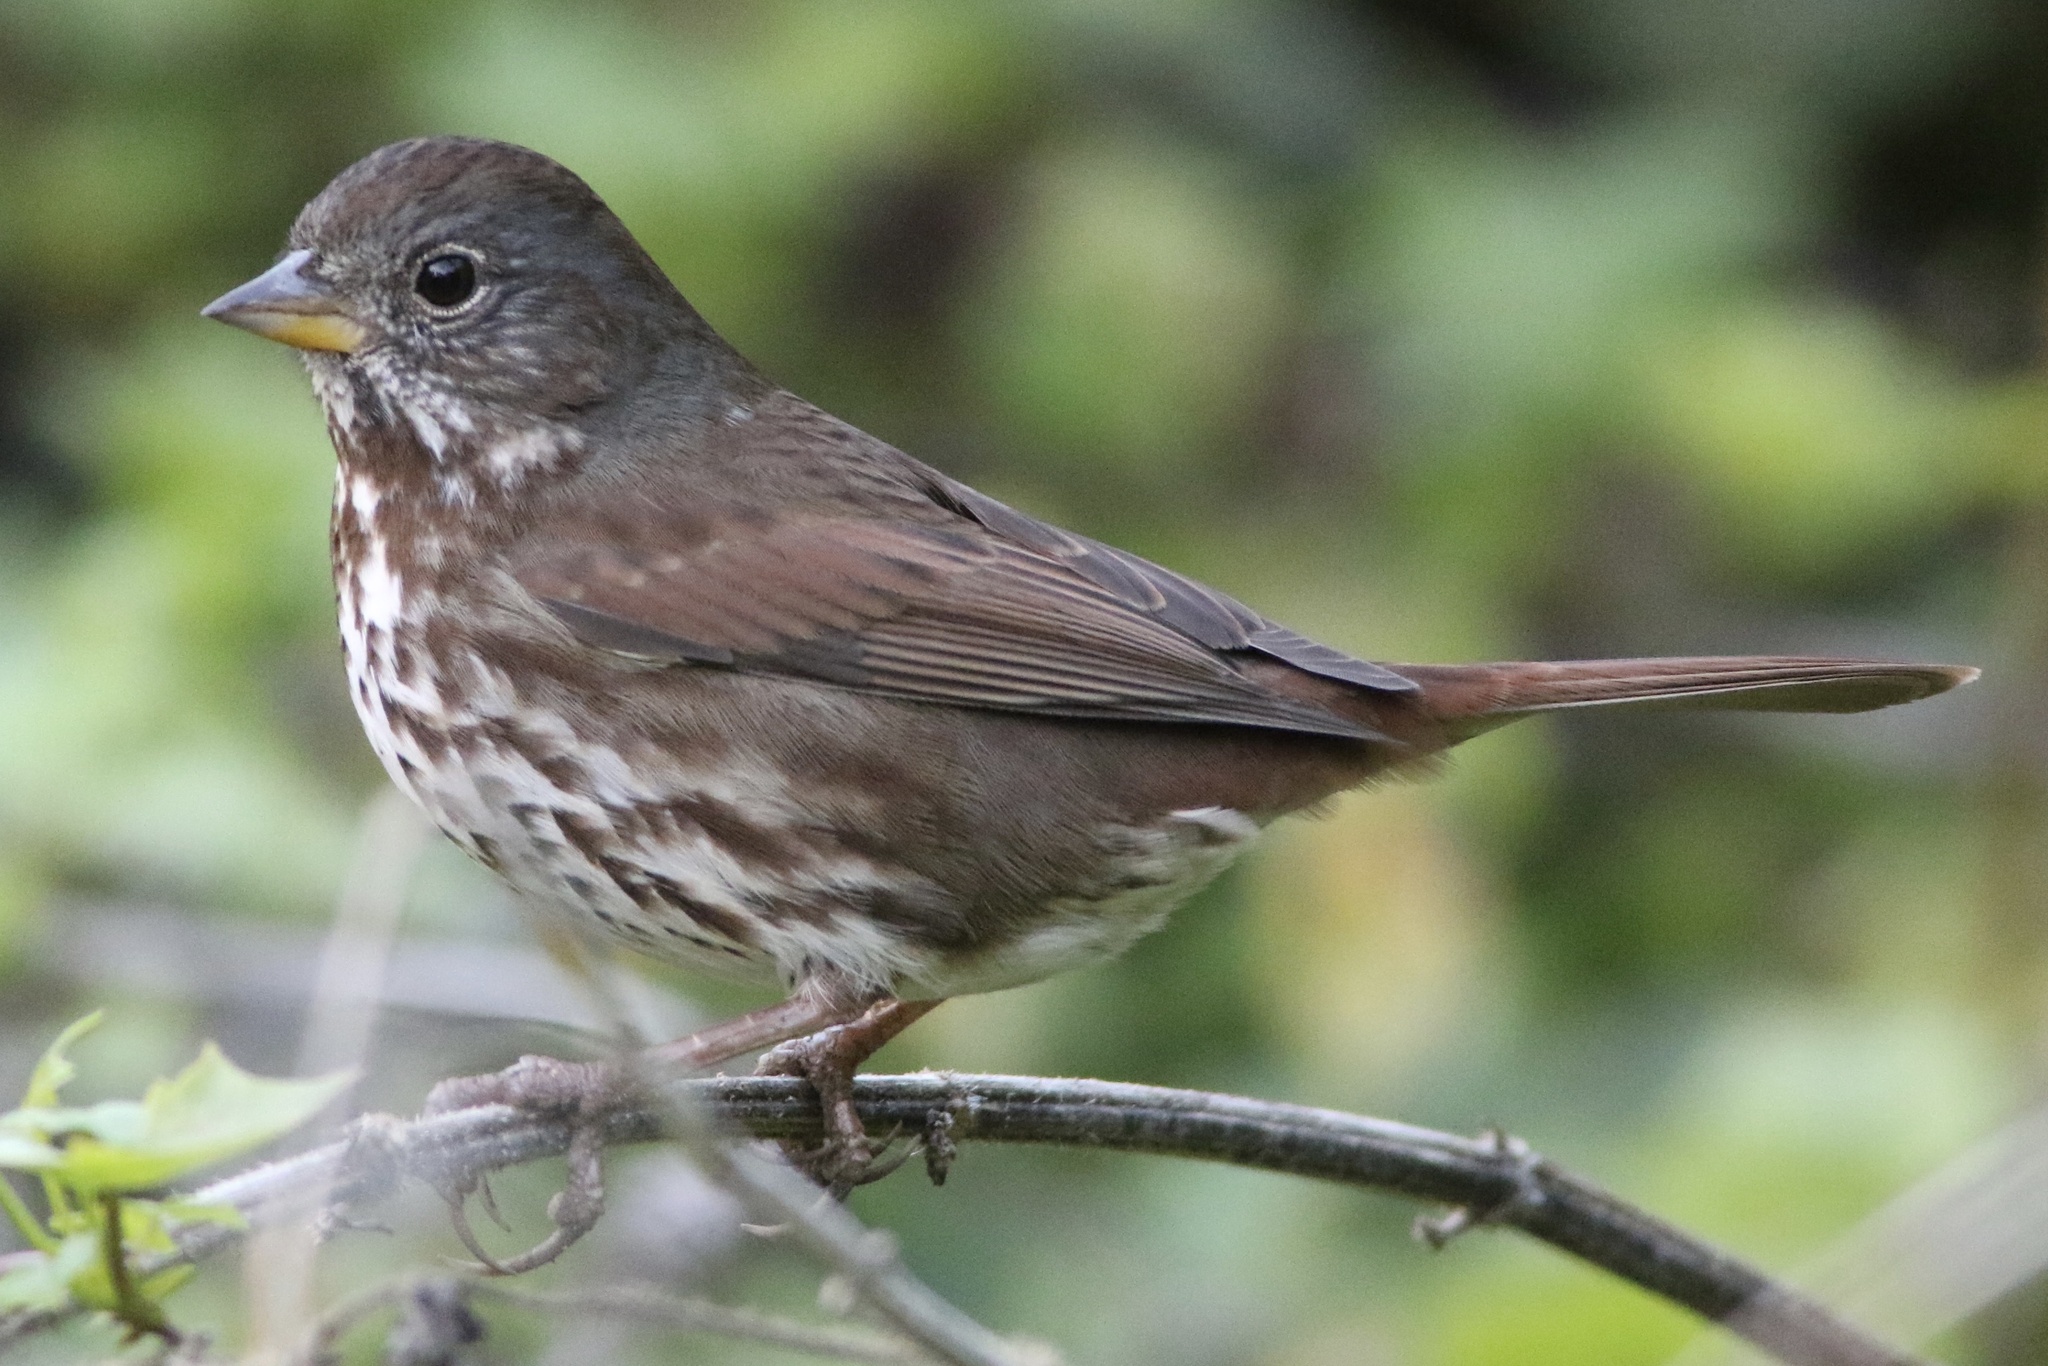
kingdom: Animalia
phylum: Chordata
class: Aves
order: Passeriformes
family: Passerellidae
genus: Passerella
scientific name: Passerella iliaca
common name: Fox sparrow
